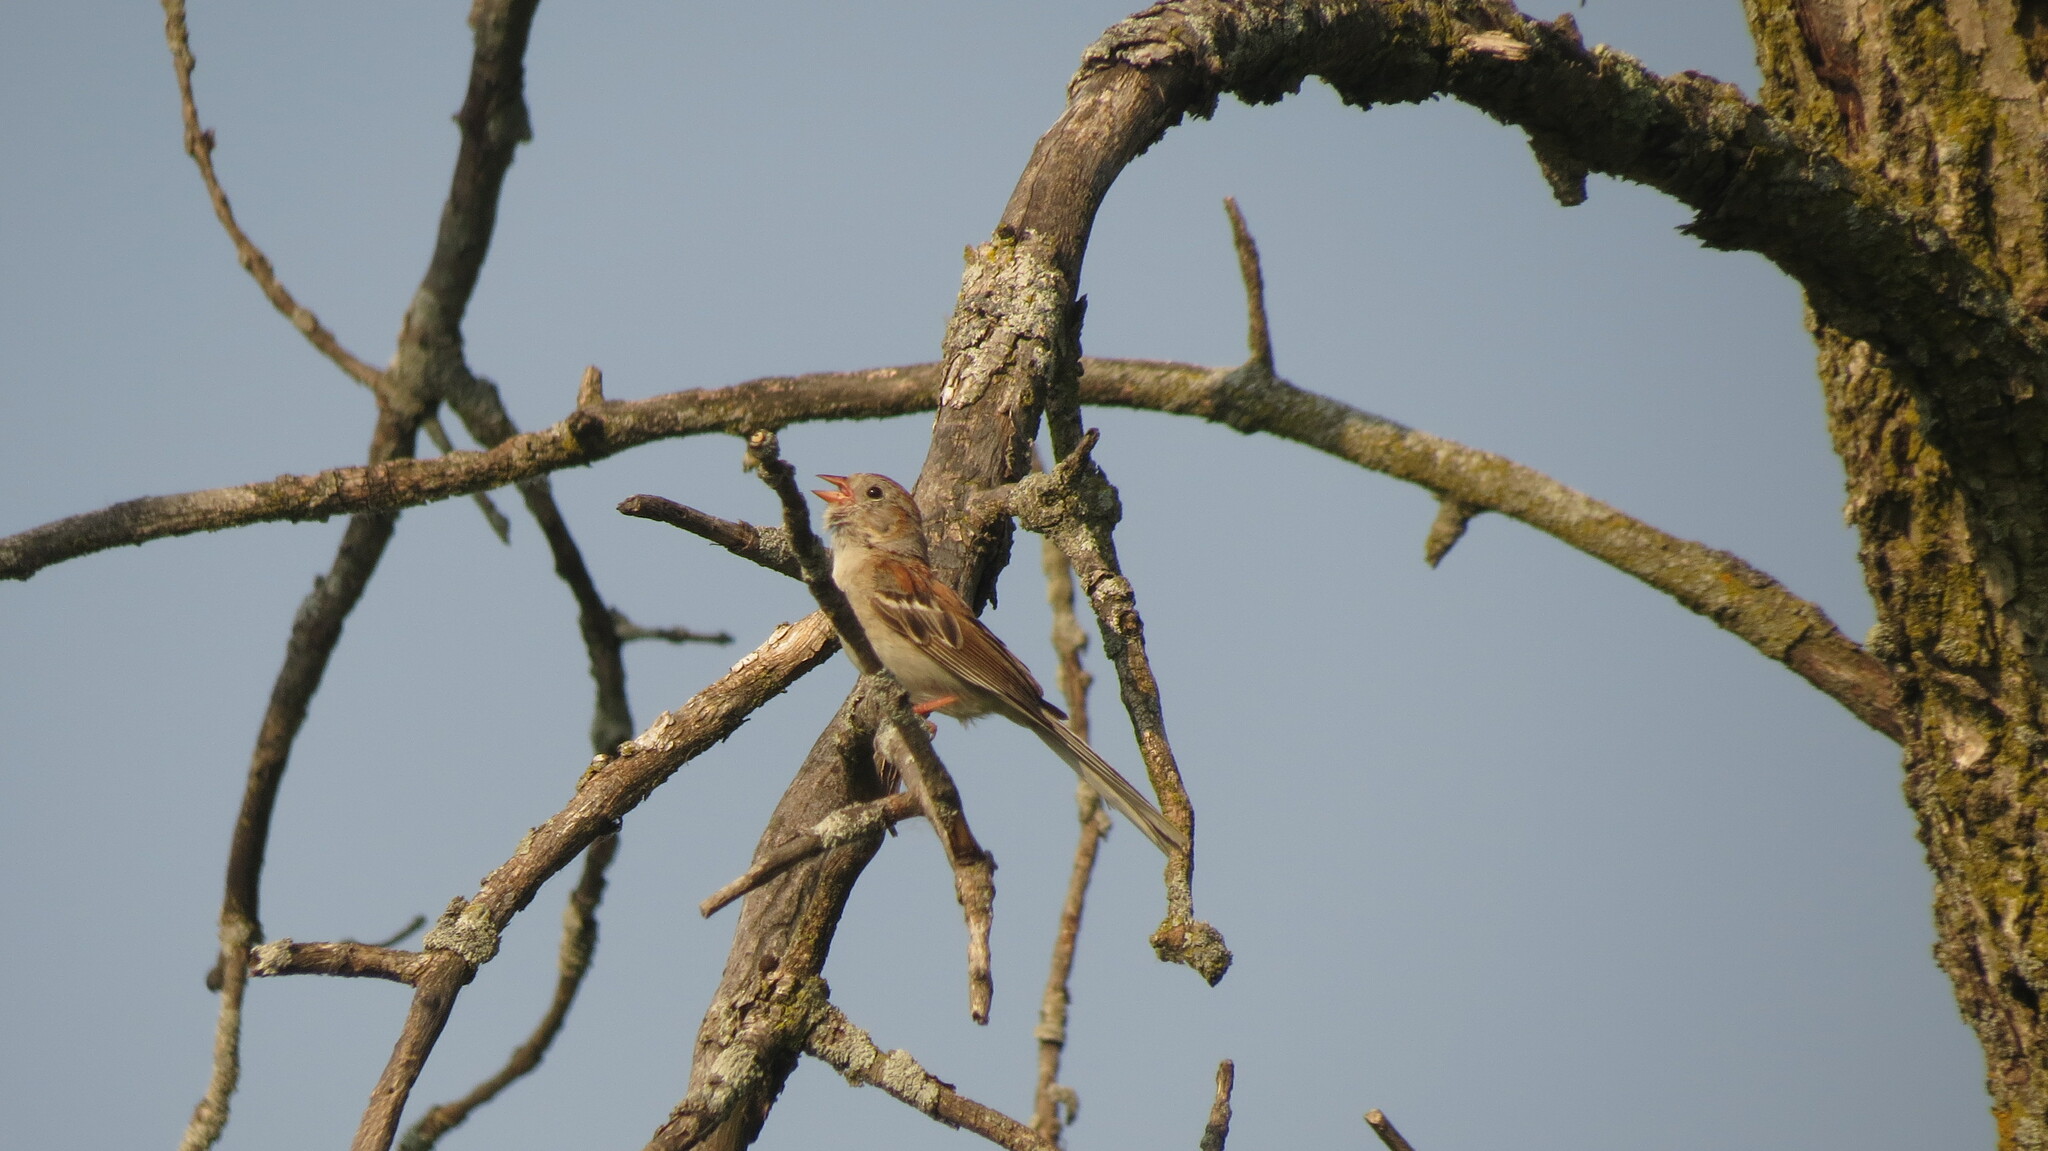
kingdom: Animalia
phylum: Chordata
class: Aves
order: Passeriformes
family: Passerellidae
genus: Spizella
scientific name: Spizella pusilla
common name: Field sparrow
